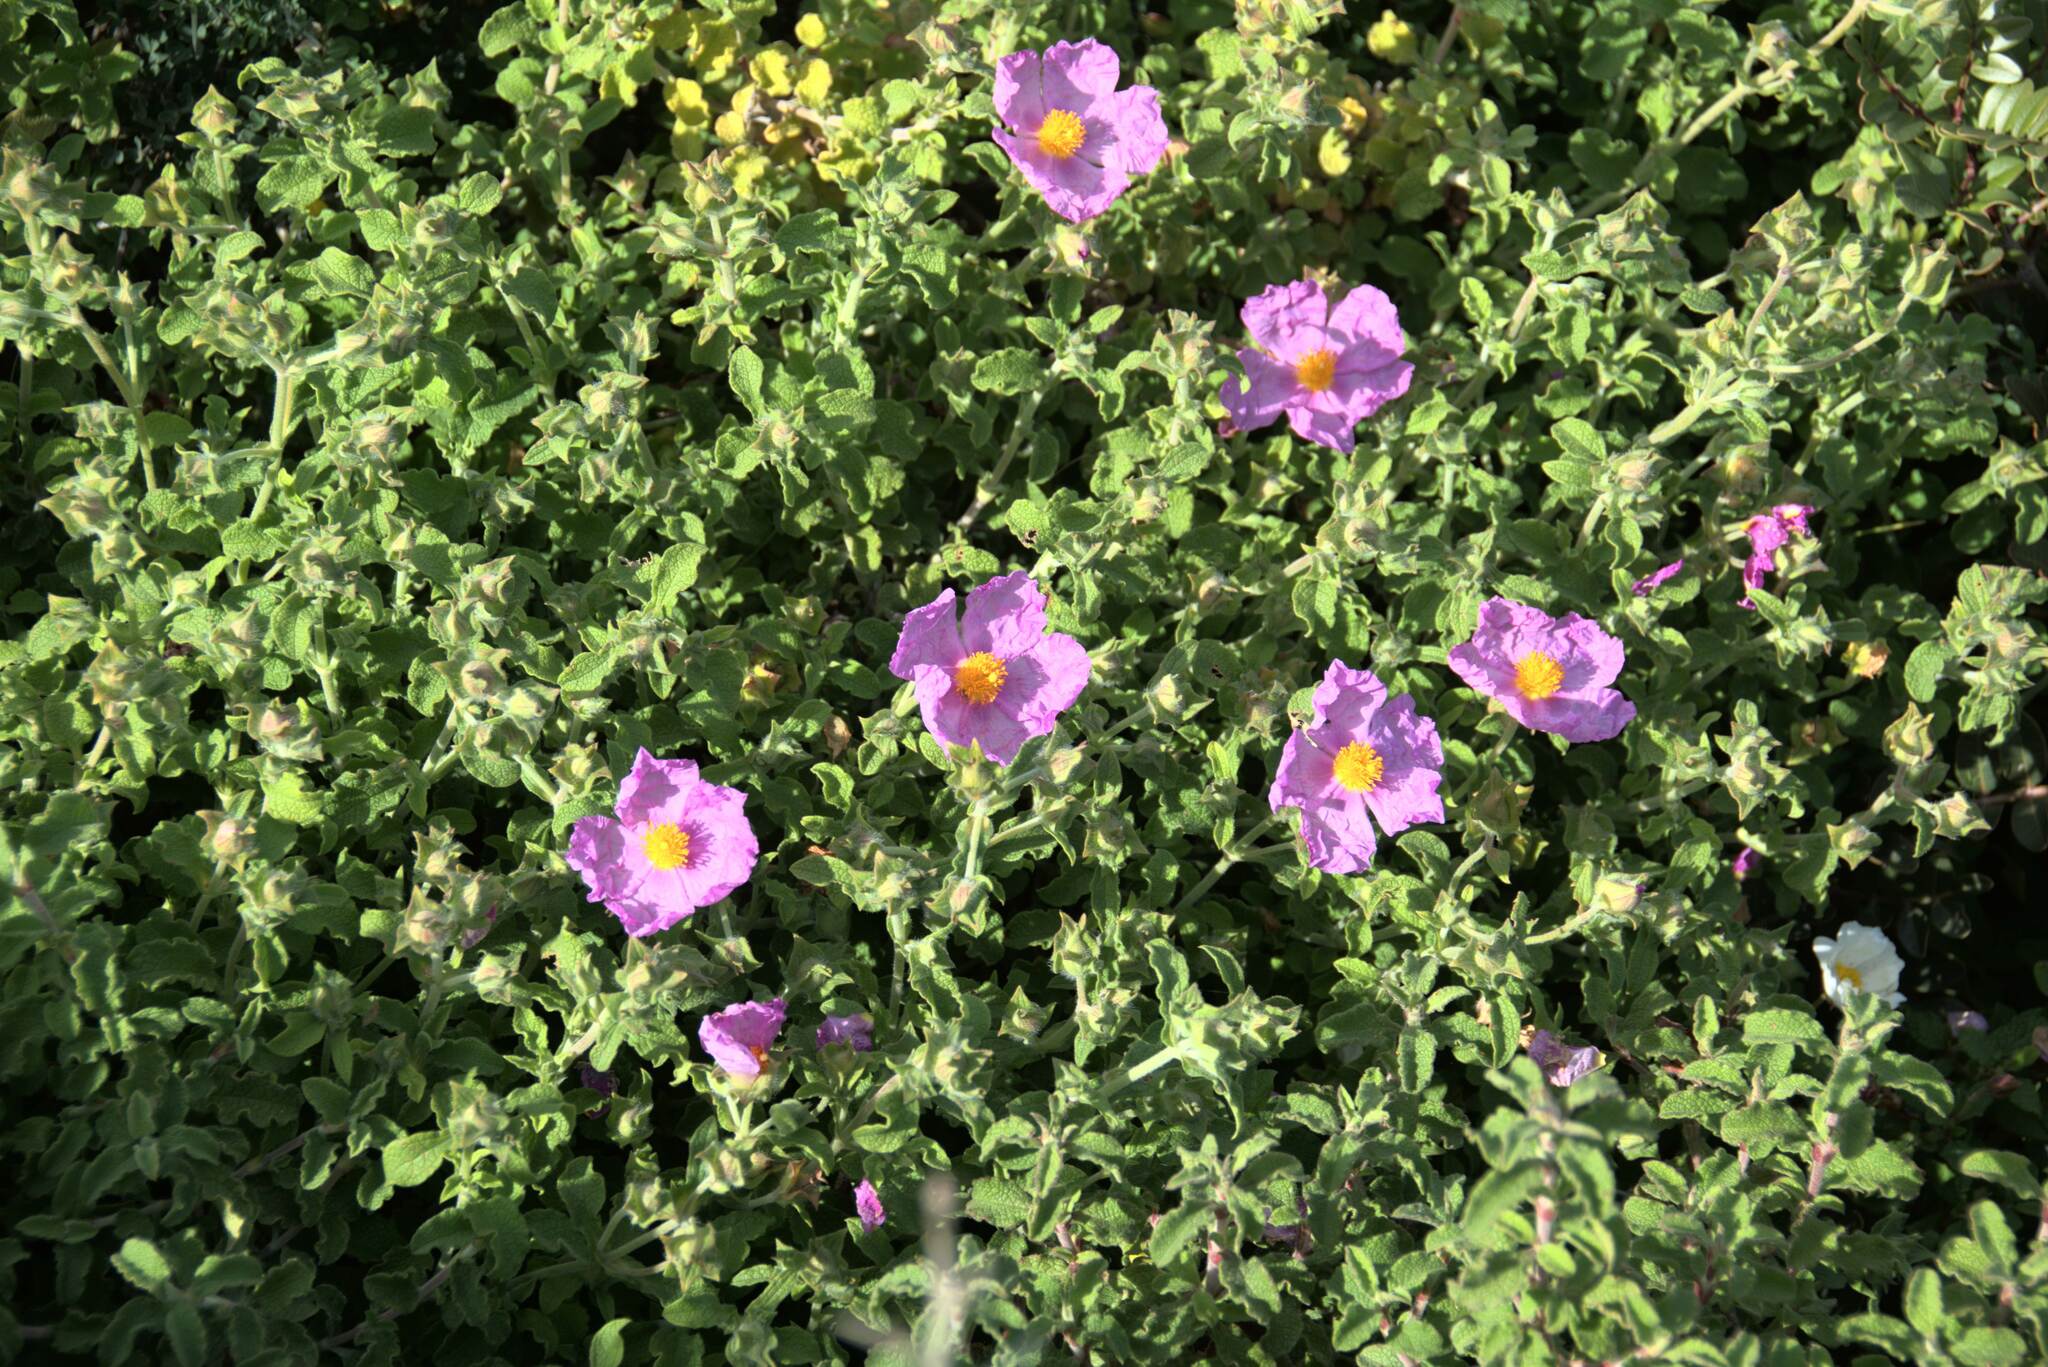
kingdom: Plantae
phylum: Tracheophyta
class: Magnoliopsida
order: Malvales
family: Cistaceae
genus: Cistus
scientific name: Cistus creticus
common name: Cretan rockrose
